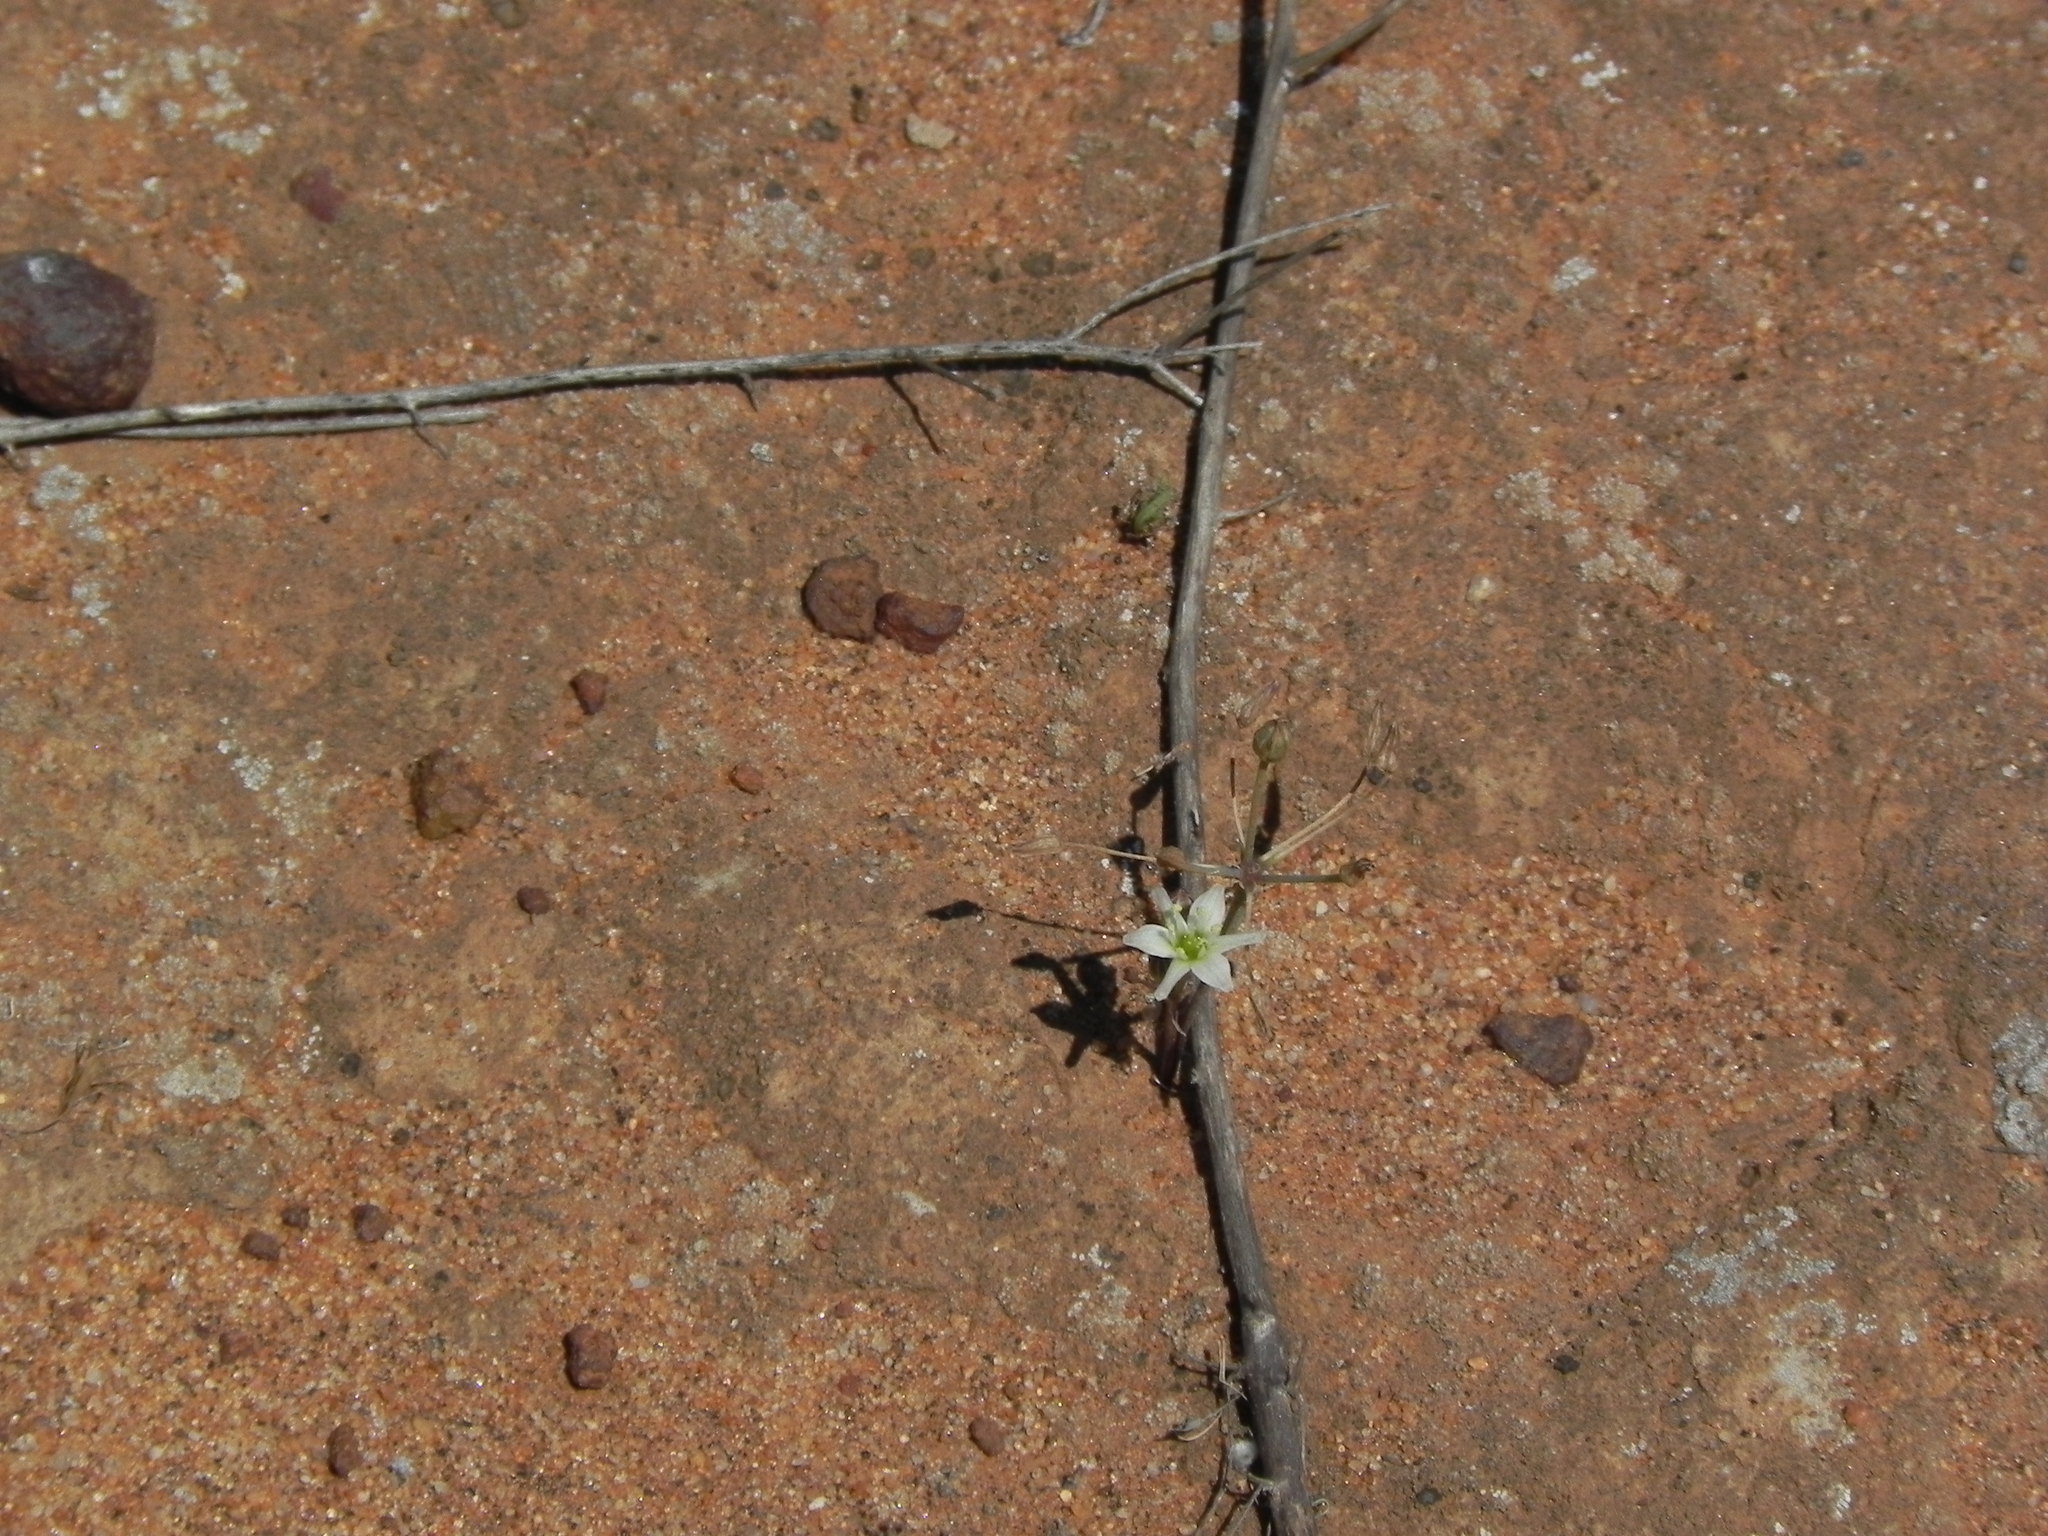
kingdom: Plantae
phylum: Tracheophyta
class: Liliopsida
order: Asparagales
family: Asparagaceae
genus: Muilla
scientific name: Muilla maritima
